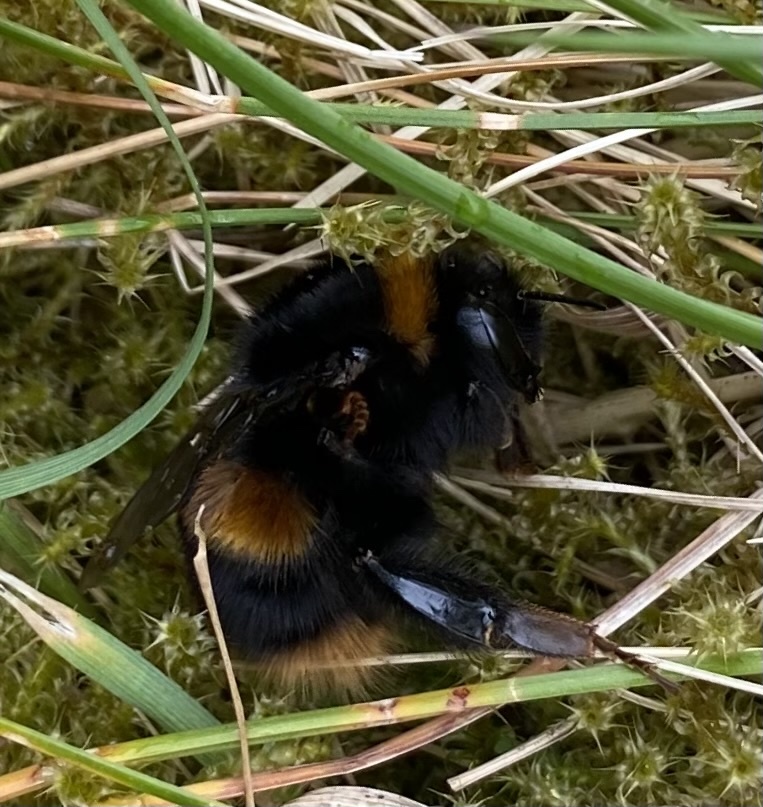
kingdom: Animalia
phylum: Arthropoda
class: Insecta
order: Hymenoptera
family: Apidae
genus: Bombus
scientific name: Bombus terrestris
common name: Buff-tailed bumblebee
